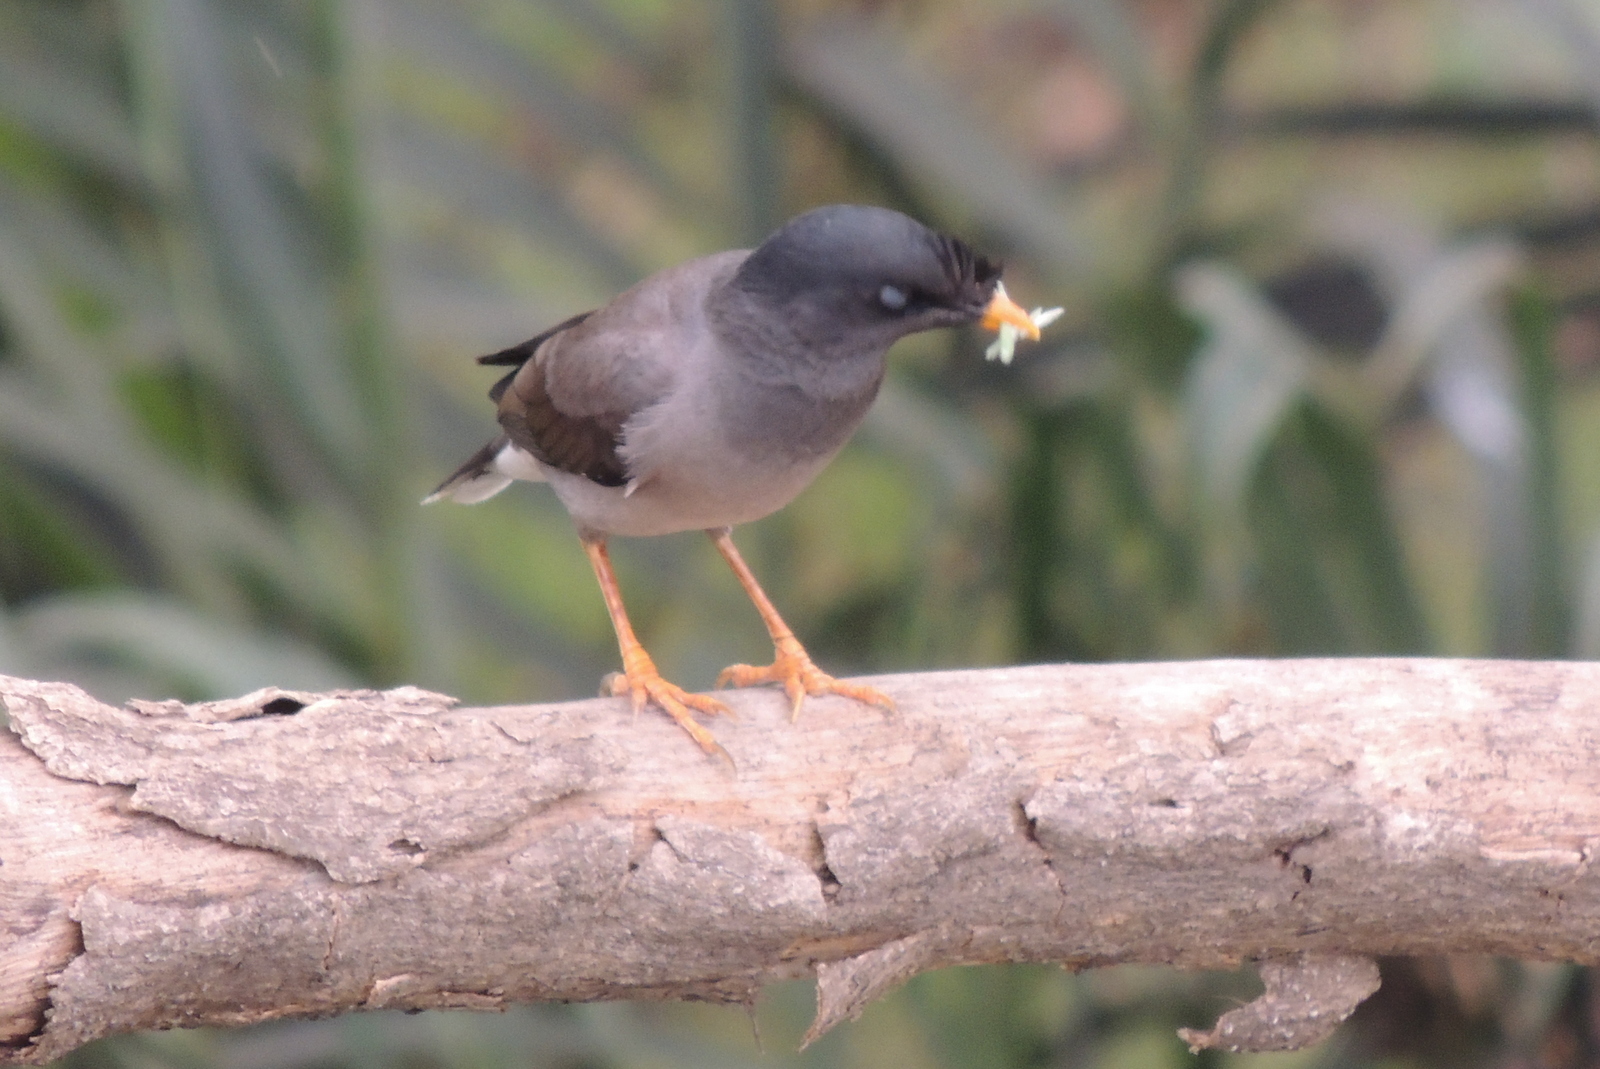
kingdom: Animalia
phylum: Chordata
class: Aves
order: Passeriformes
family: Sturnidae
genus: Acridotheres
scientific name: Acridotheres fuscus
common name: Jungle myna
